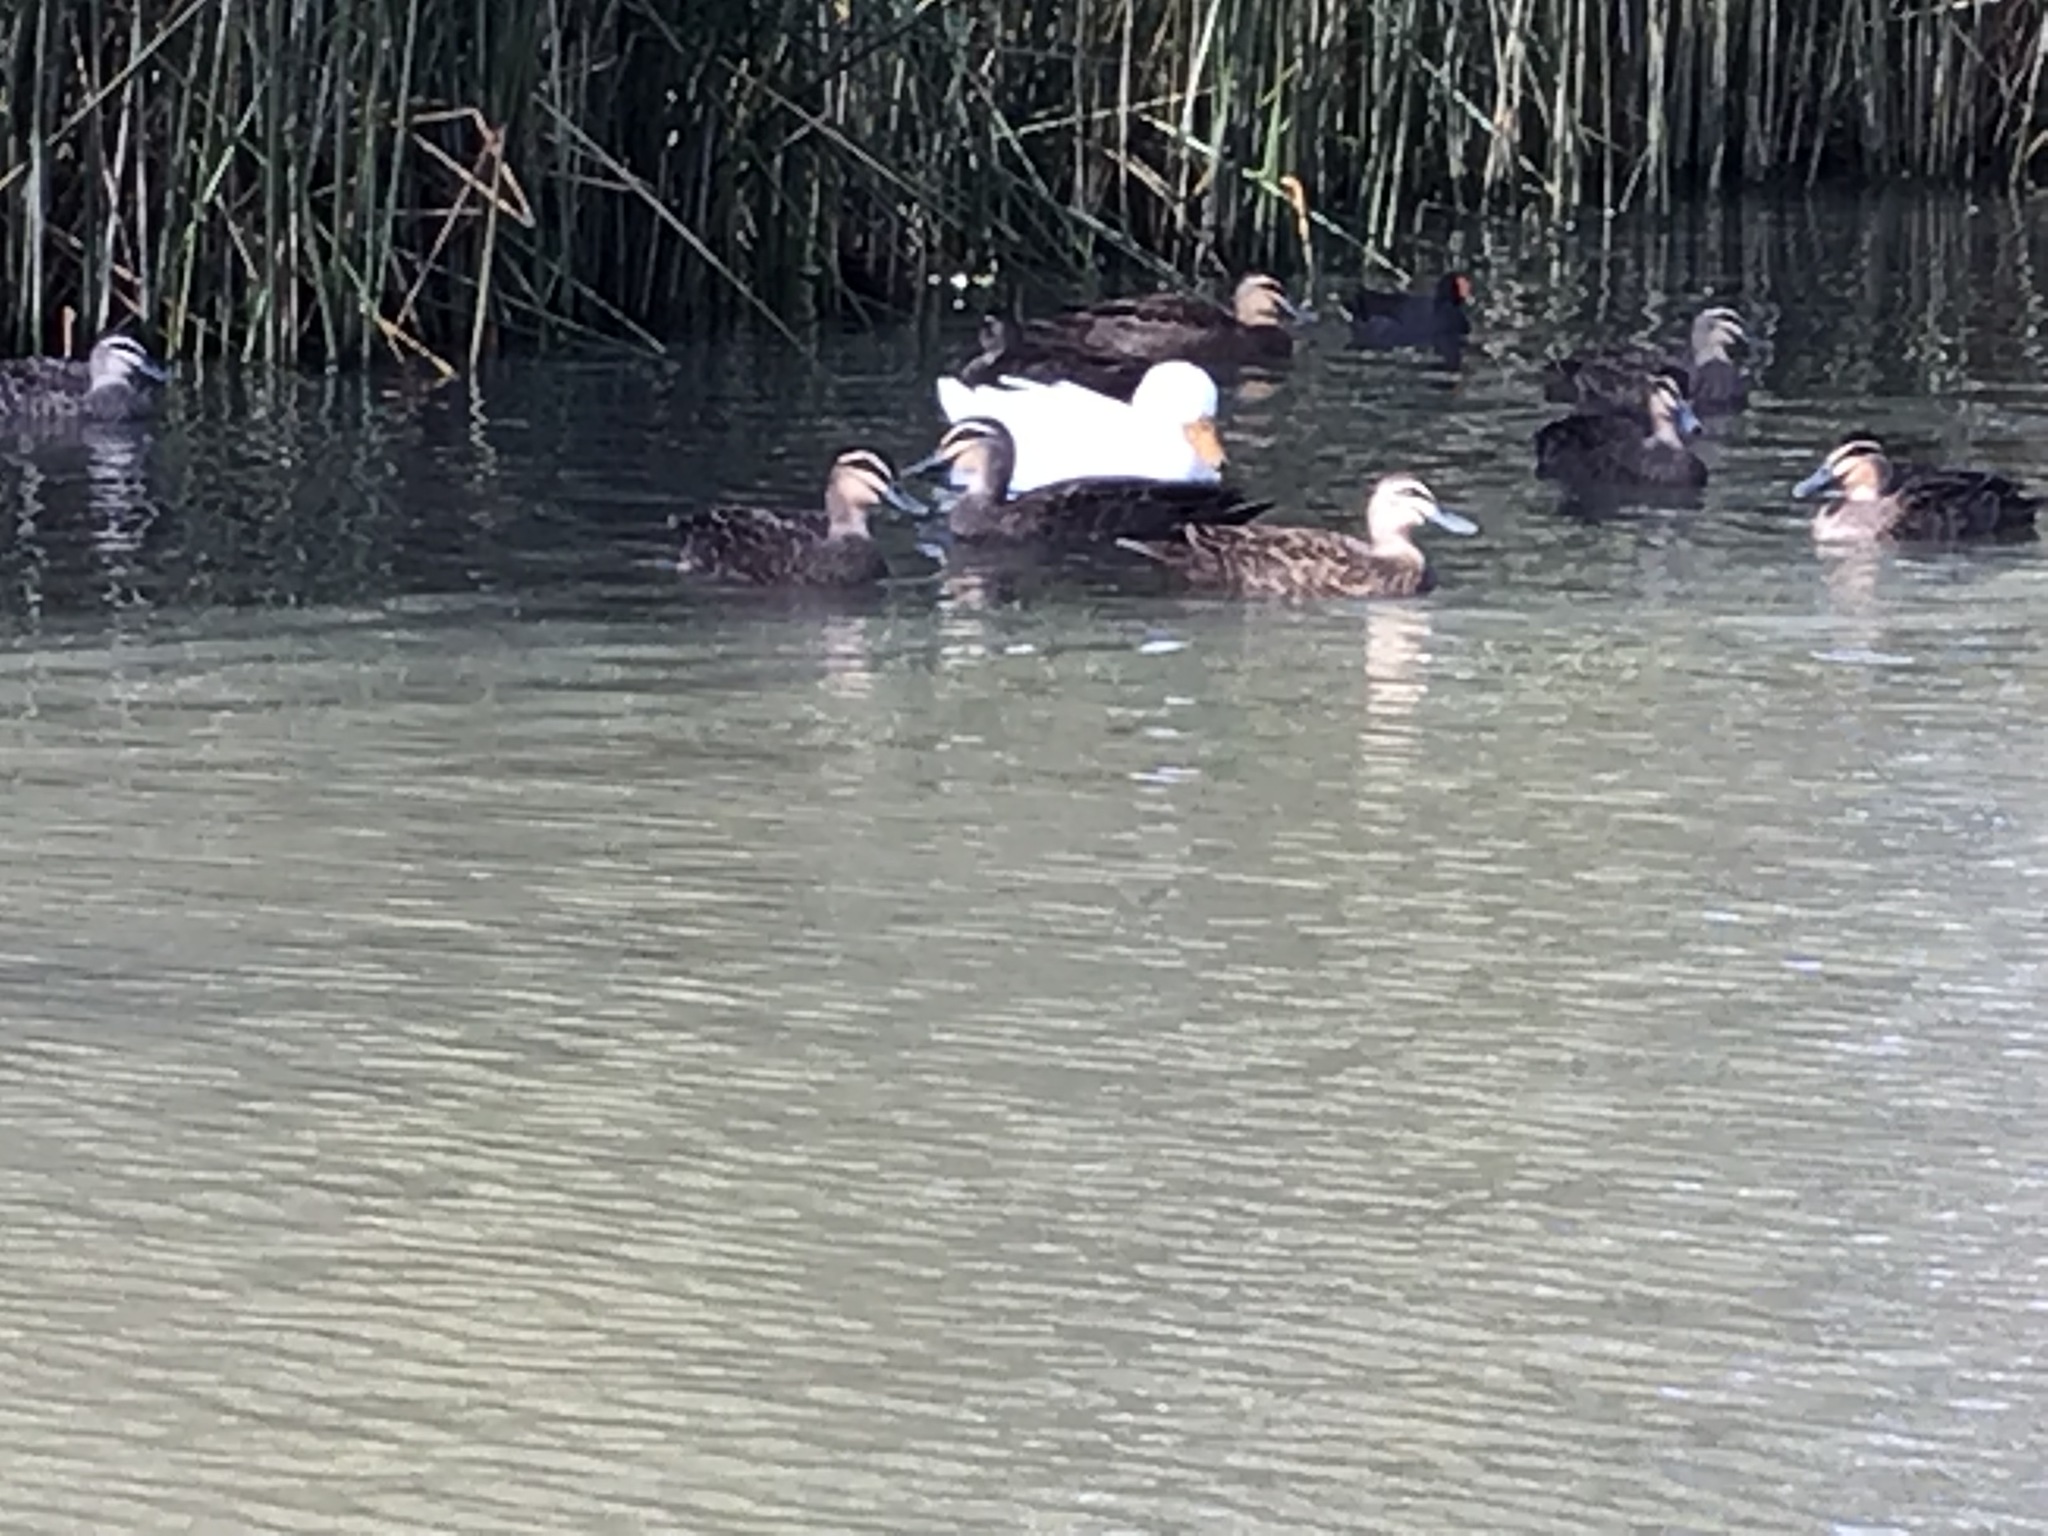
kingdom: Animalia
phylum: Chordata
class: Aves
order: Anseriformes
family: Anatidae
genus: Anas
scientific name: Anas superciliosa
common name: Pacific black duck
